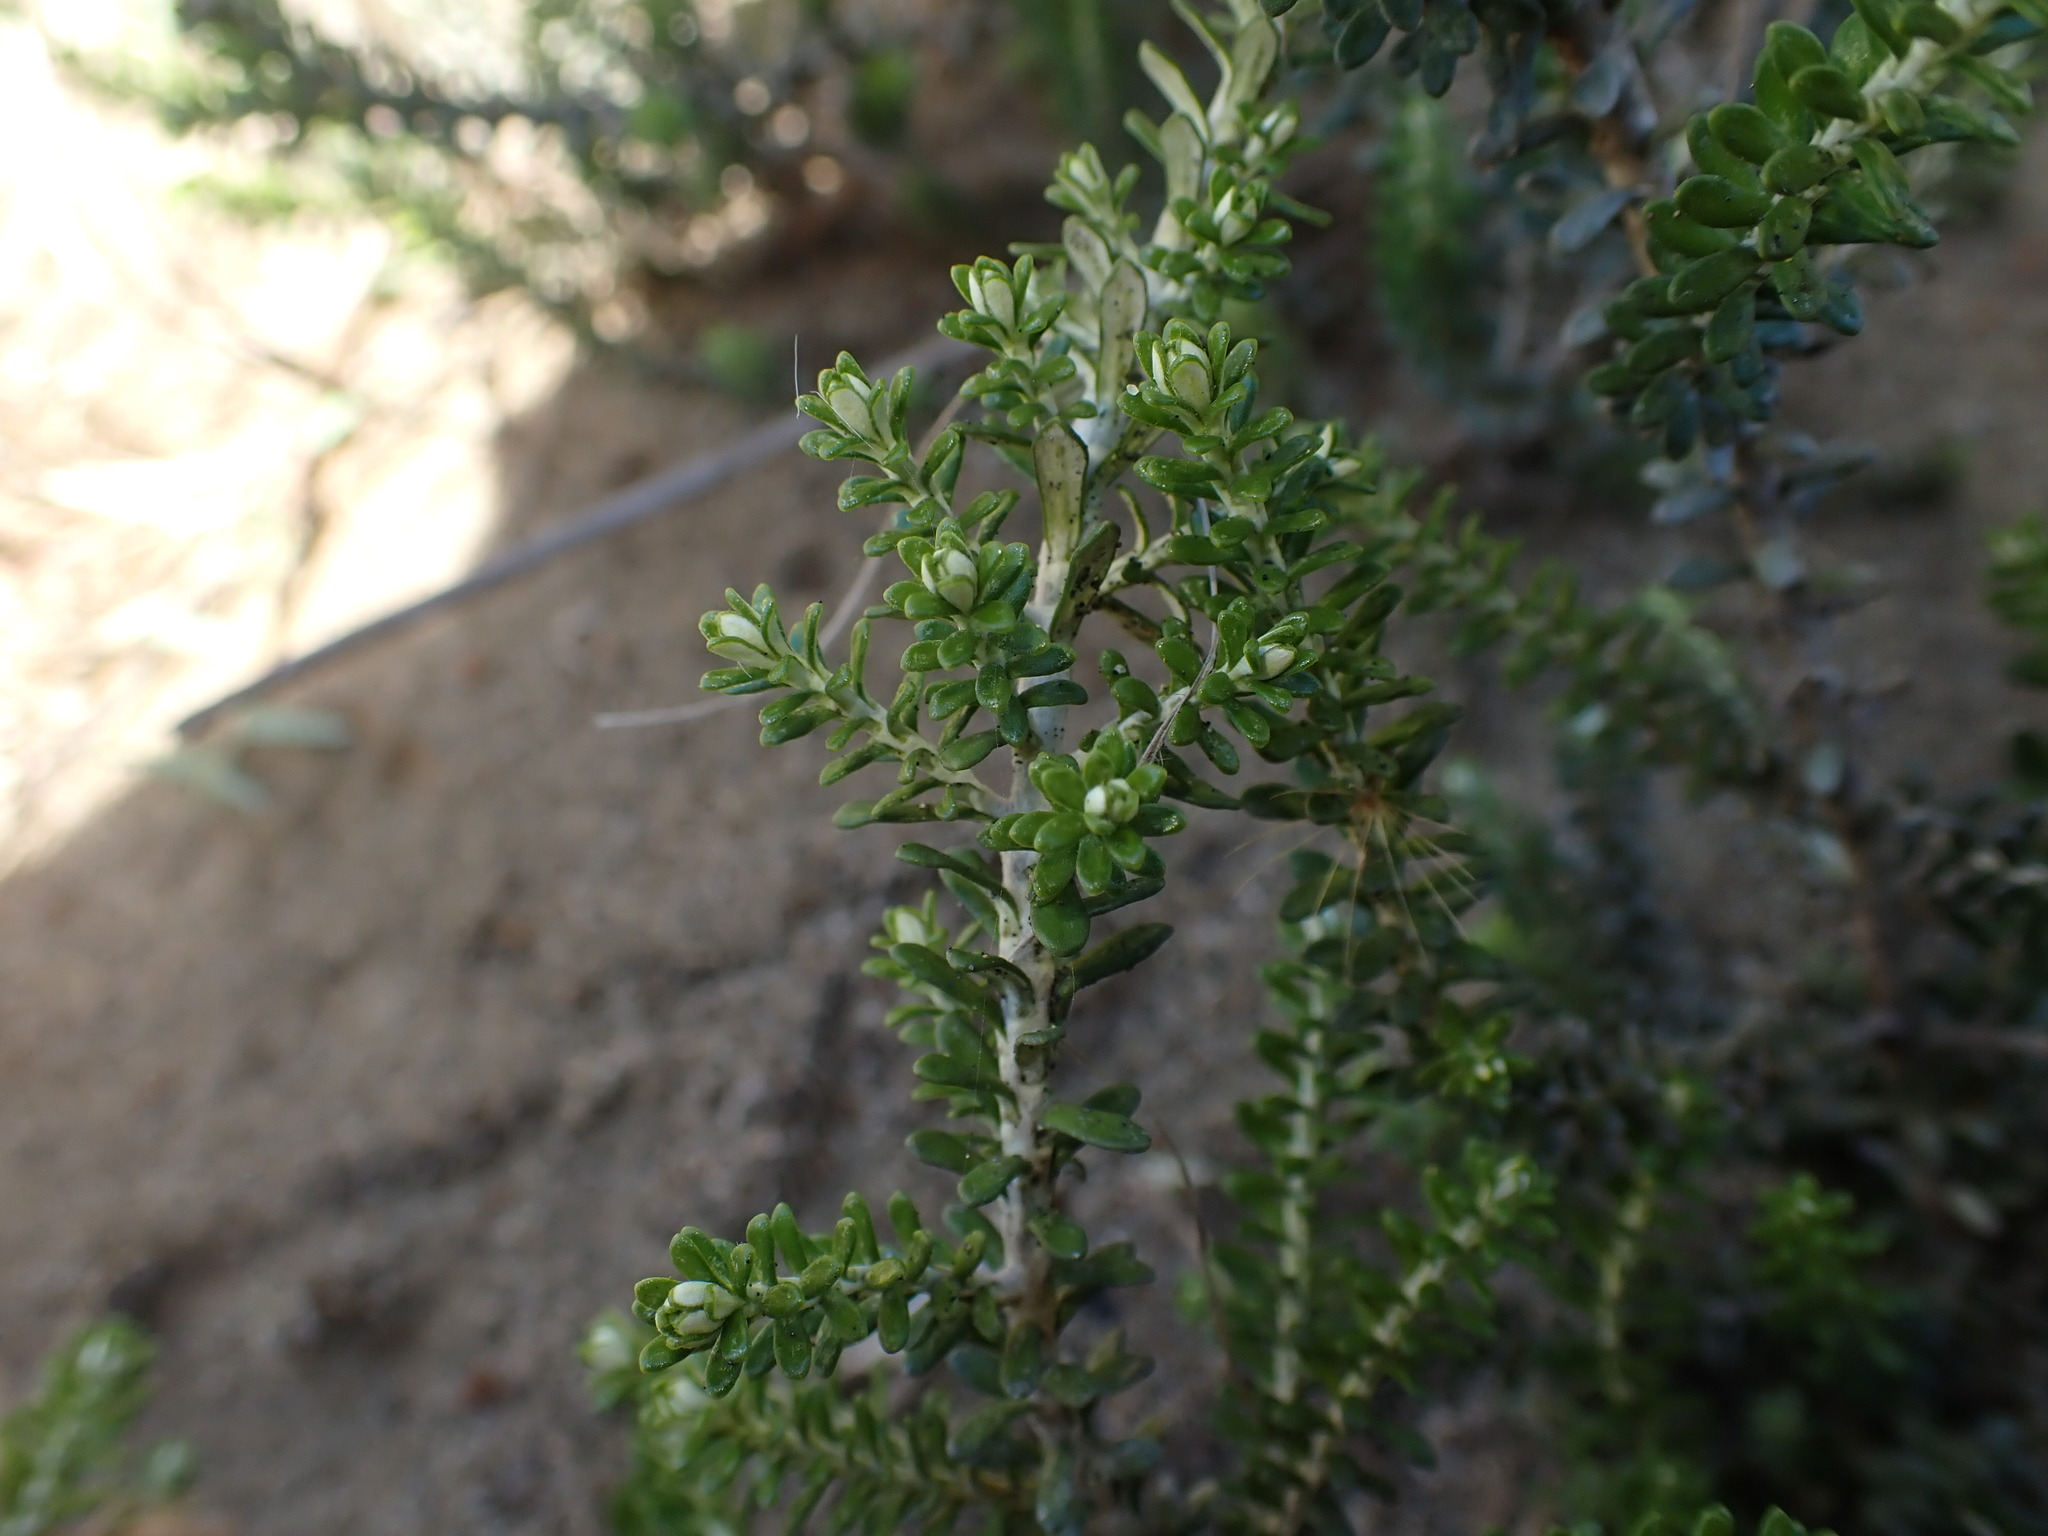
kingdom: Plantae
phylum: Tracheophyta
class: Magnoliopsida
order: Asterales
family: Asteraceae
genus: Ozothamnus
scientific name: Ozothamnus leptophyllus
